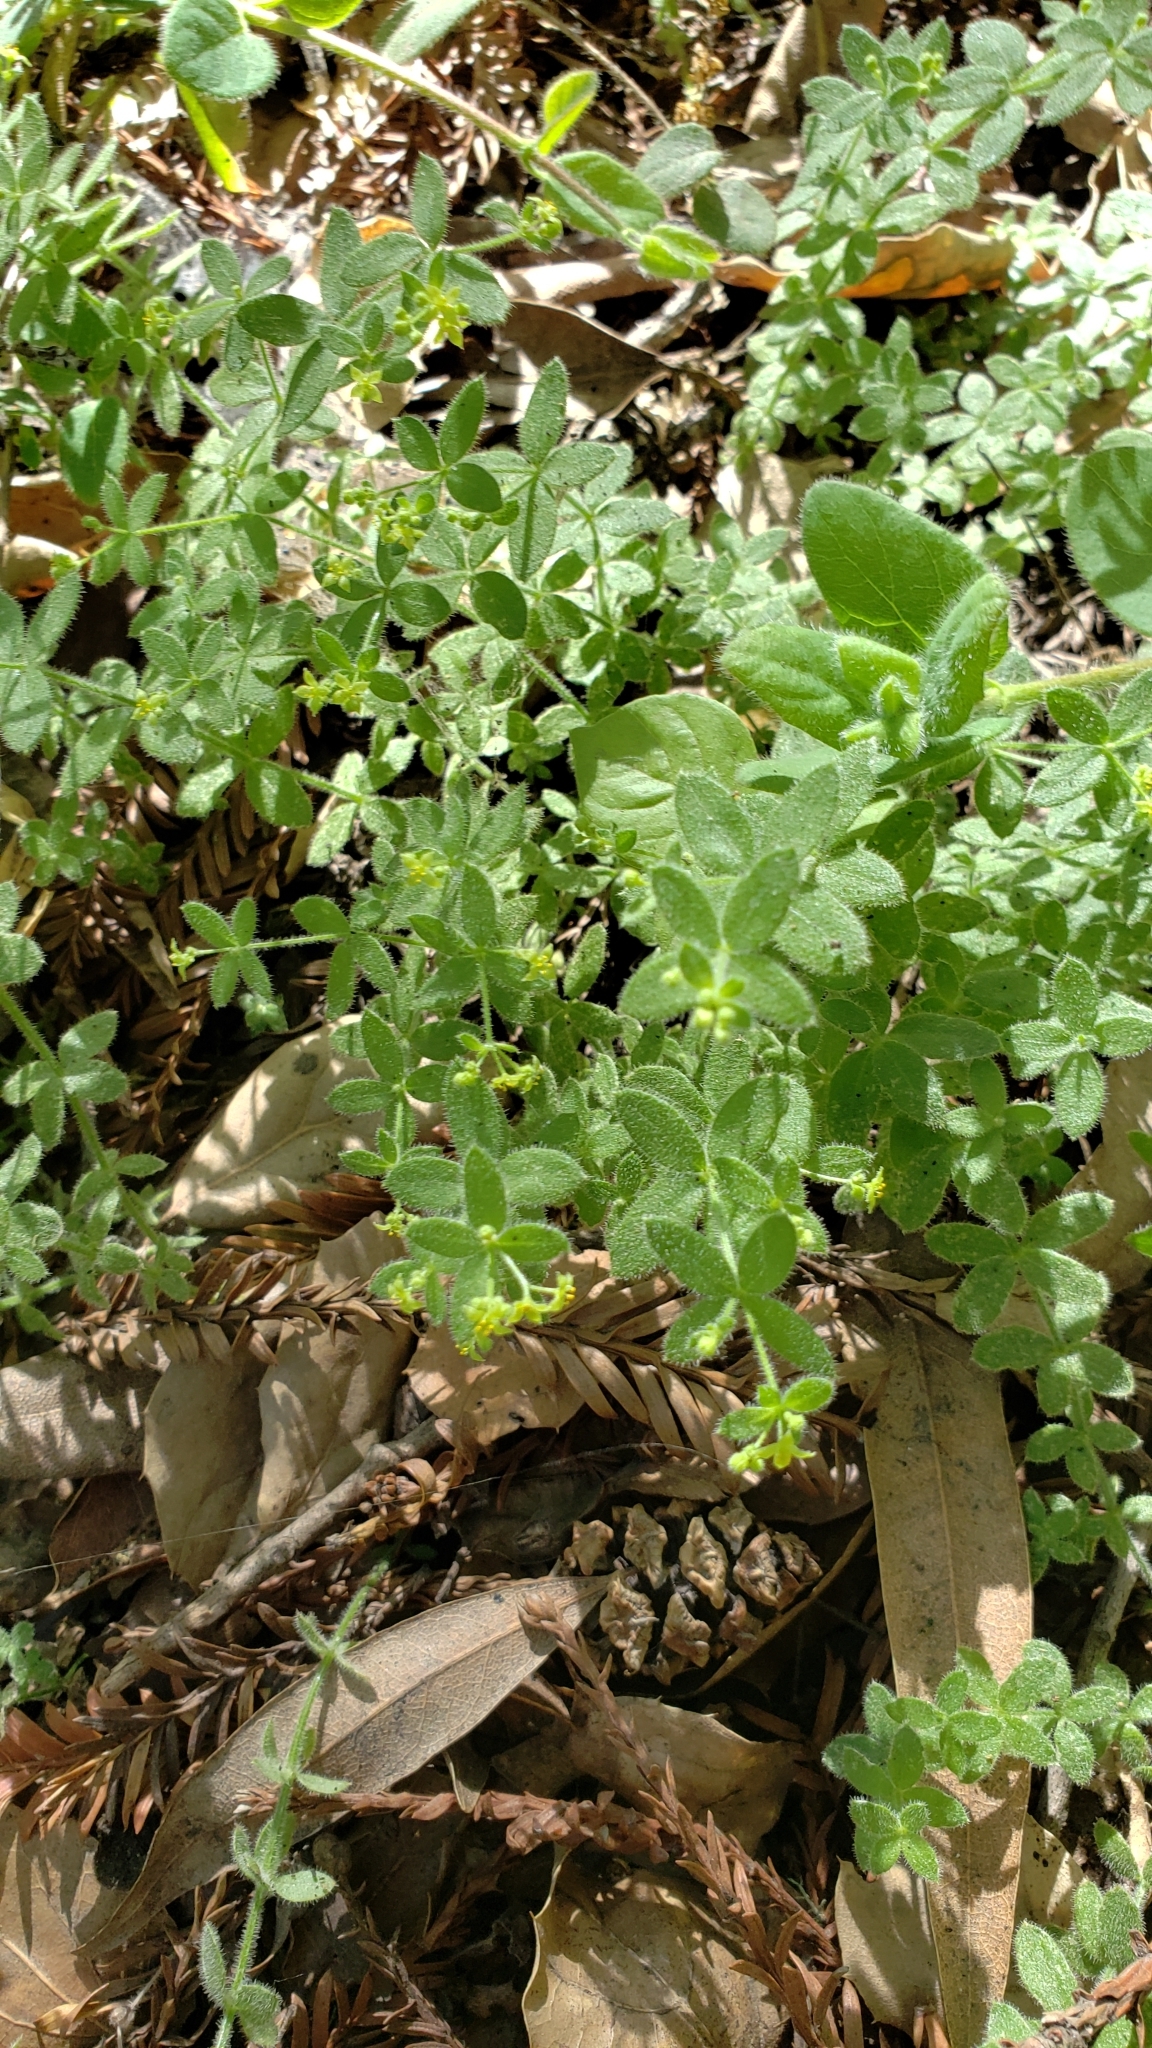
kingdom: Plantae
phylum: Tracheophyta
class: Magnoliopsida
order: Gentianales
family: Rubiaceae
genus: Galium
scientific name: Galium californicum
